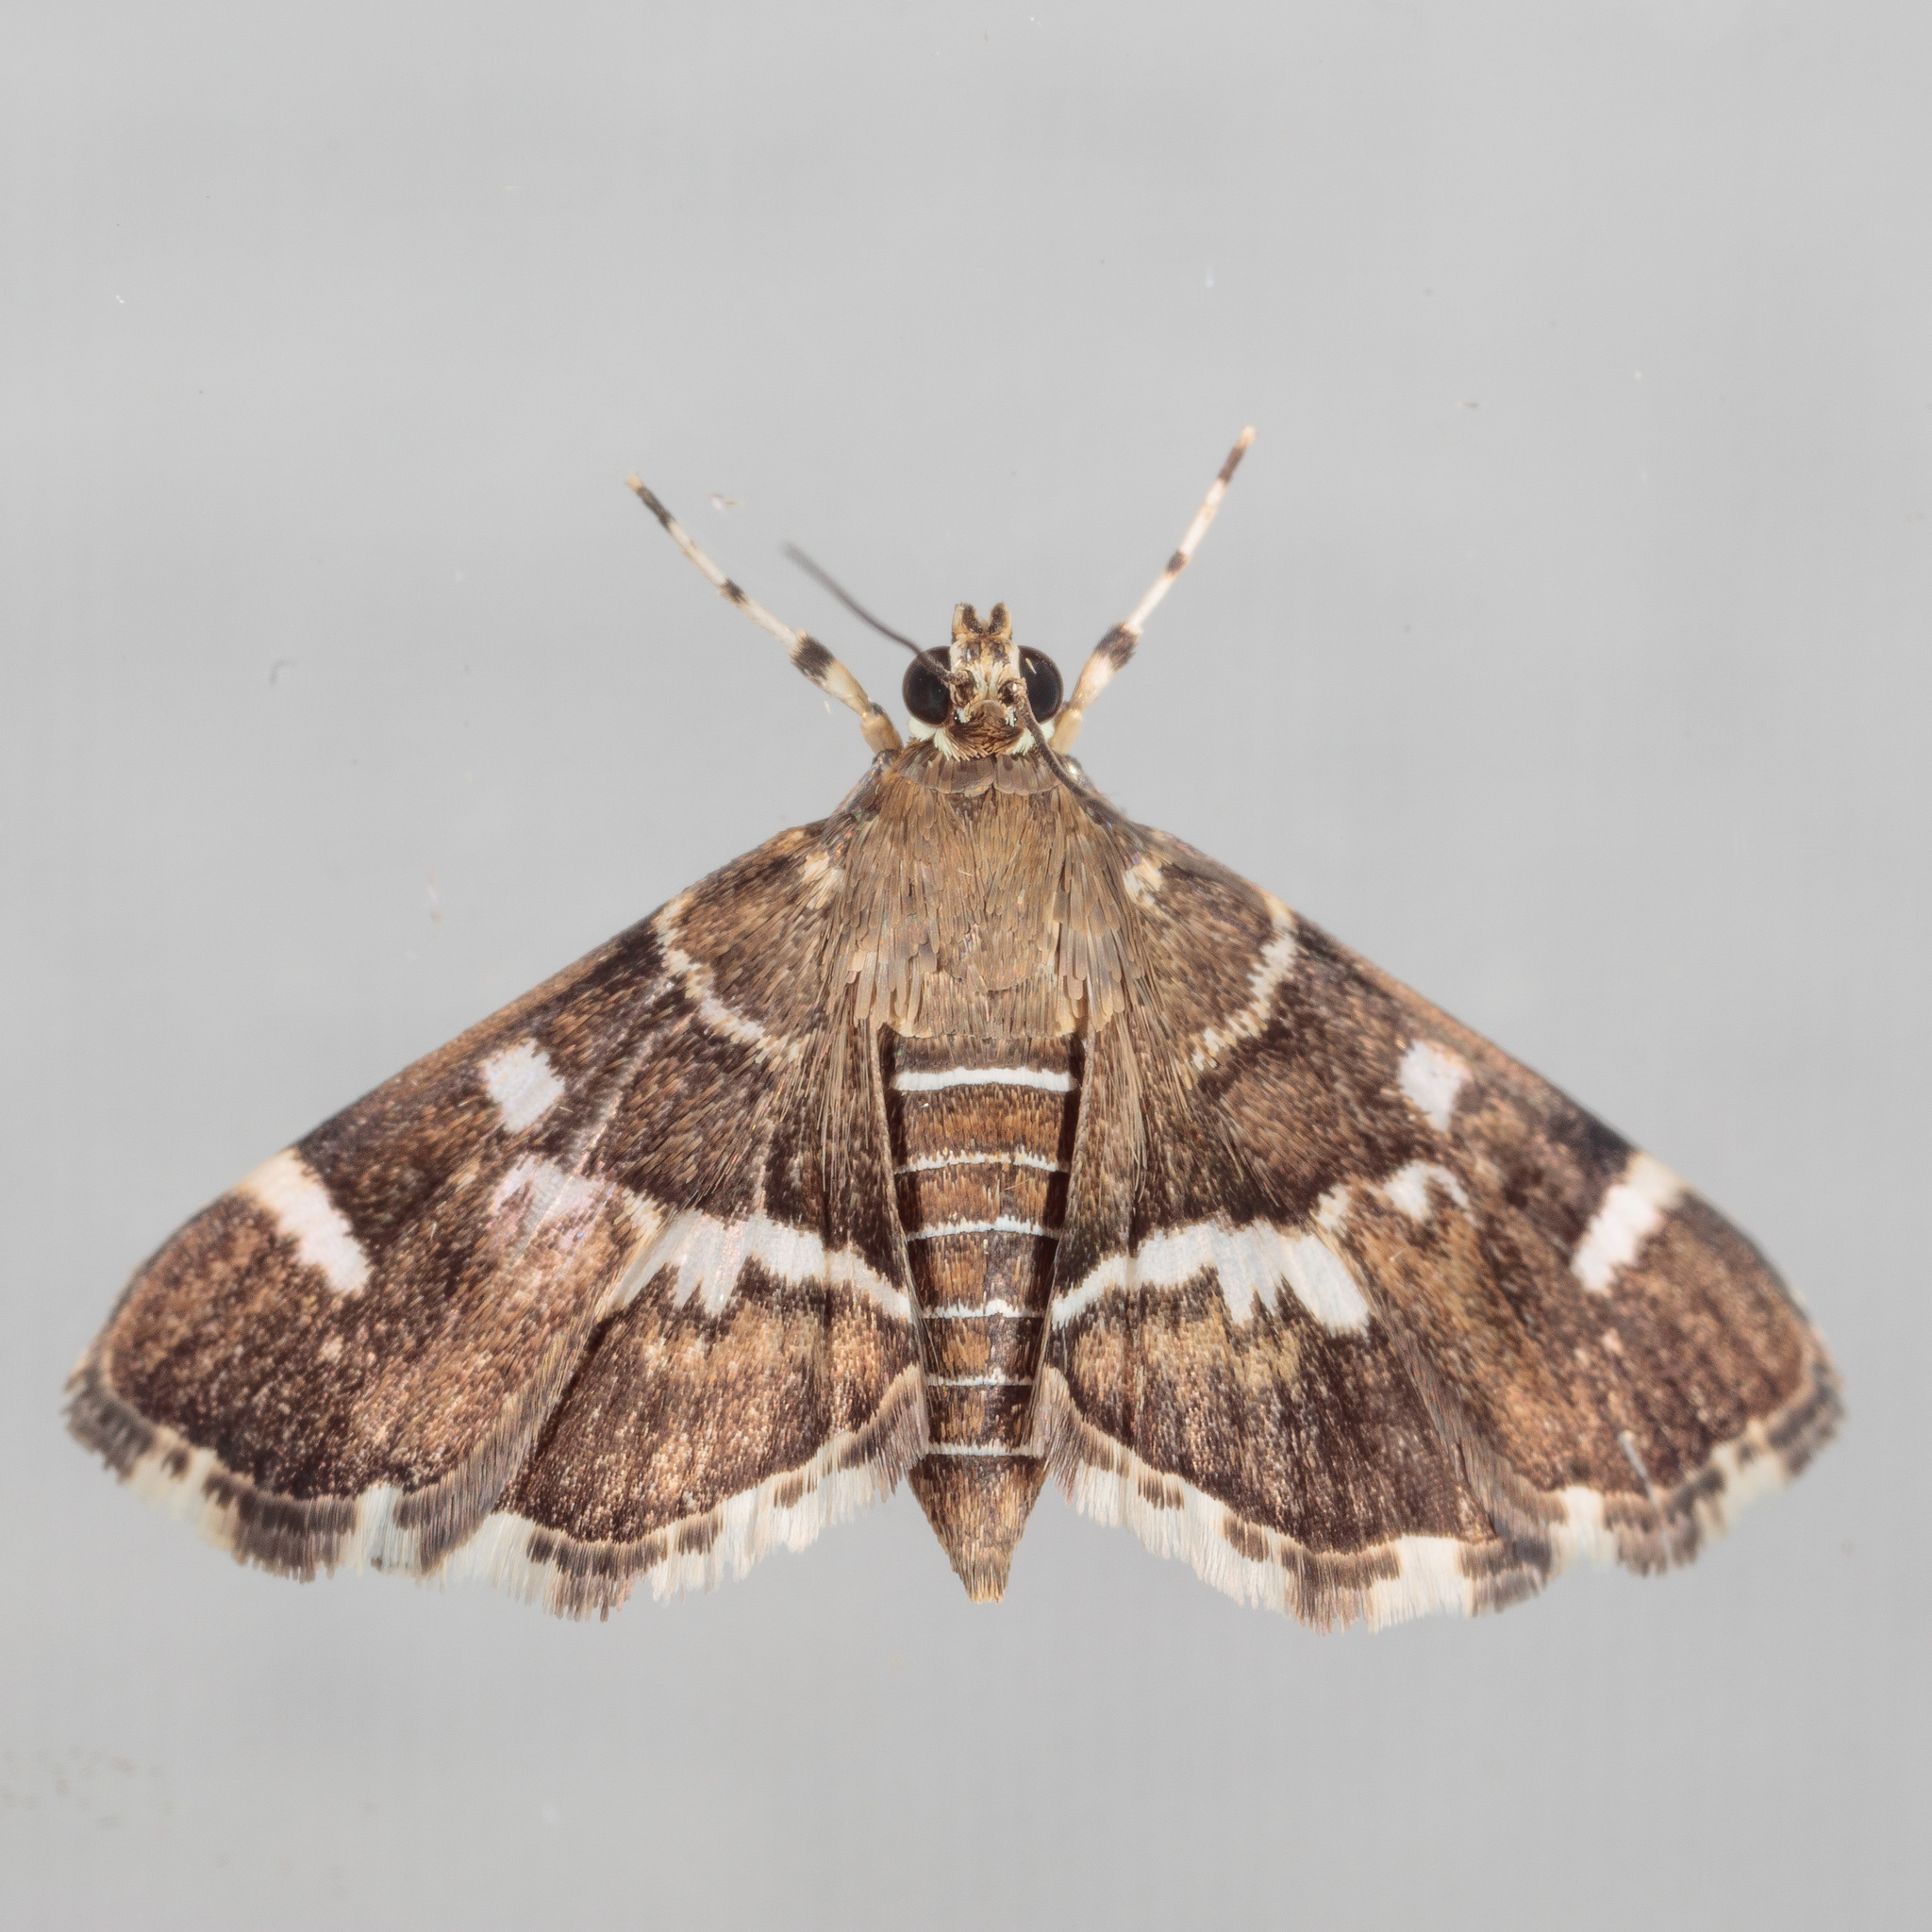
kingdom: Animalia
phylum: Arthropoda
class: Insecta
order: Lepidoptera
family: Crambidae
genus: Hymenia
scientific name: Hymenia perspectalis
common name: Spotted beet webworm
